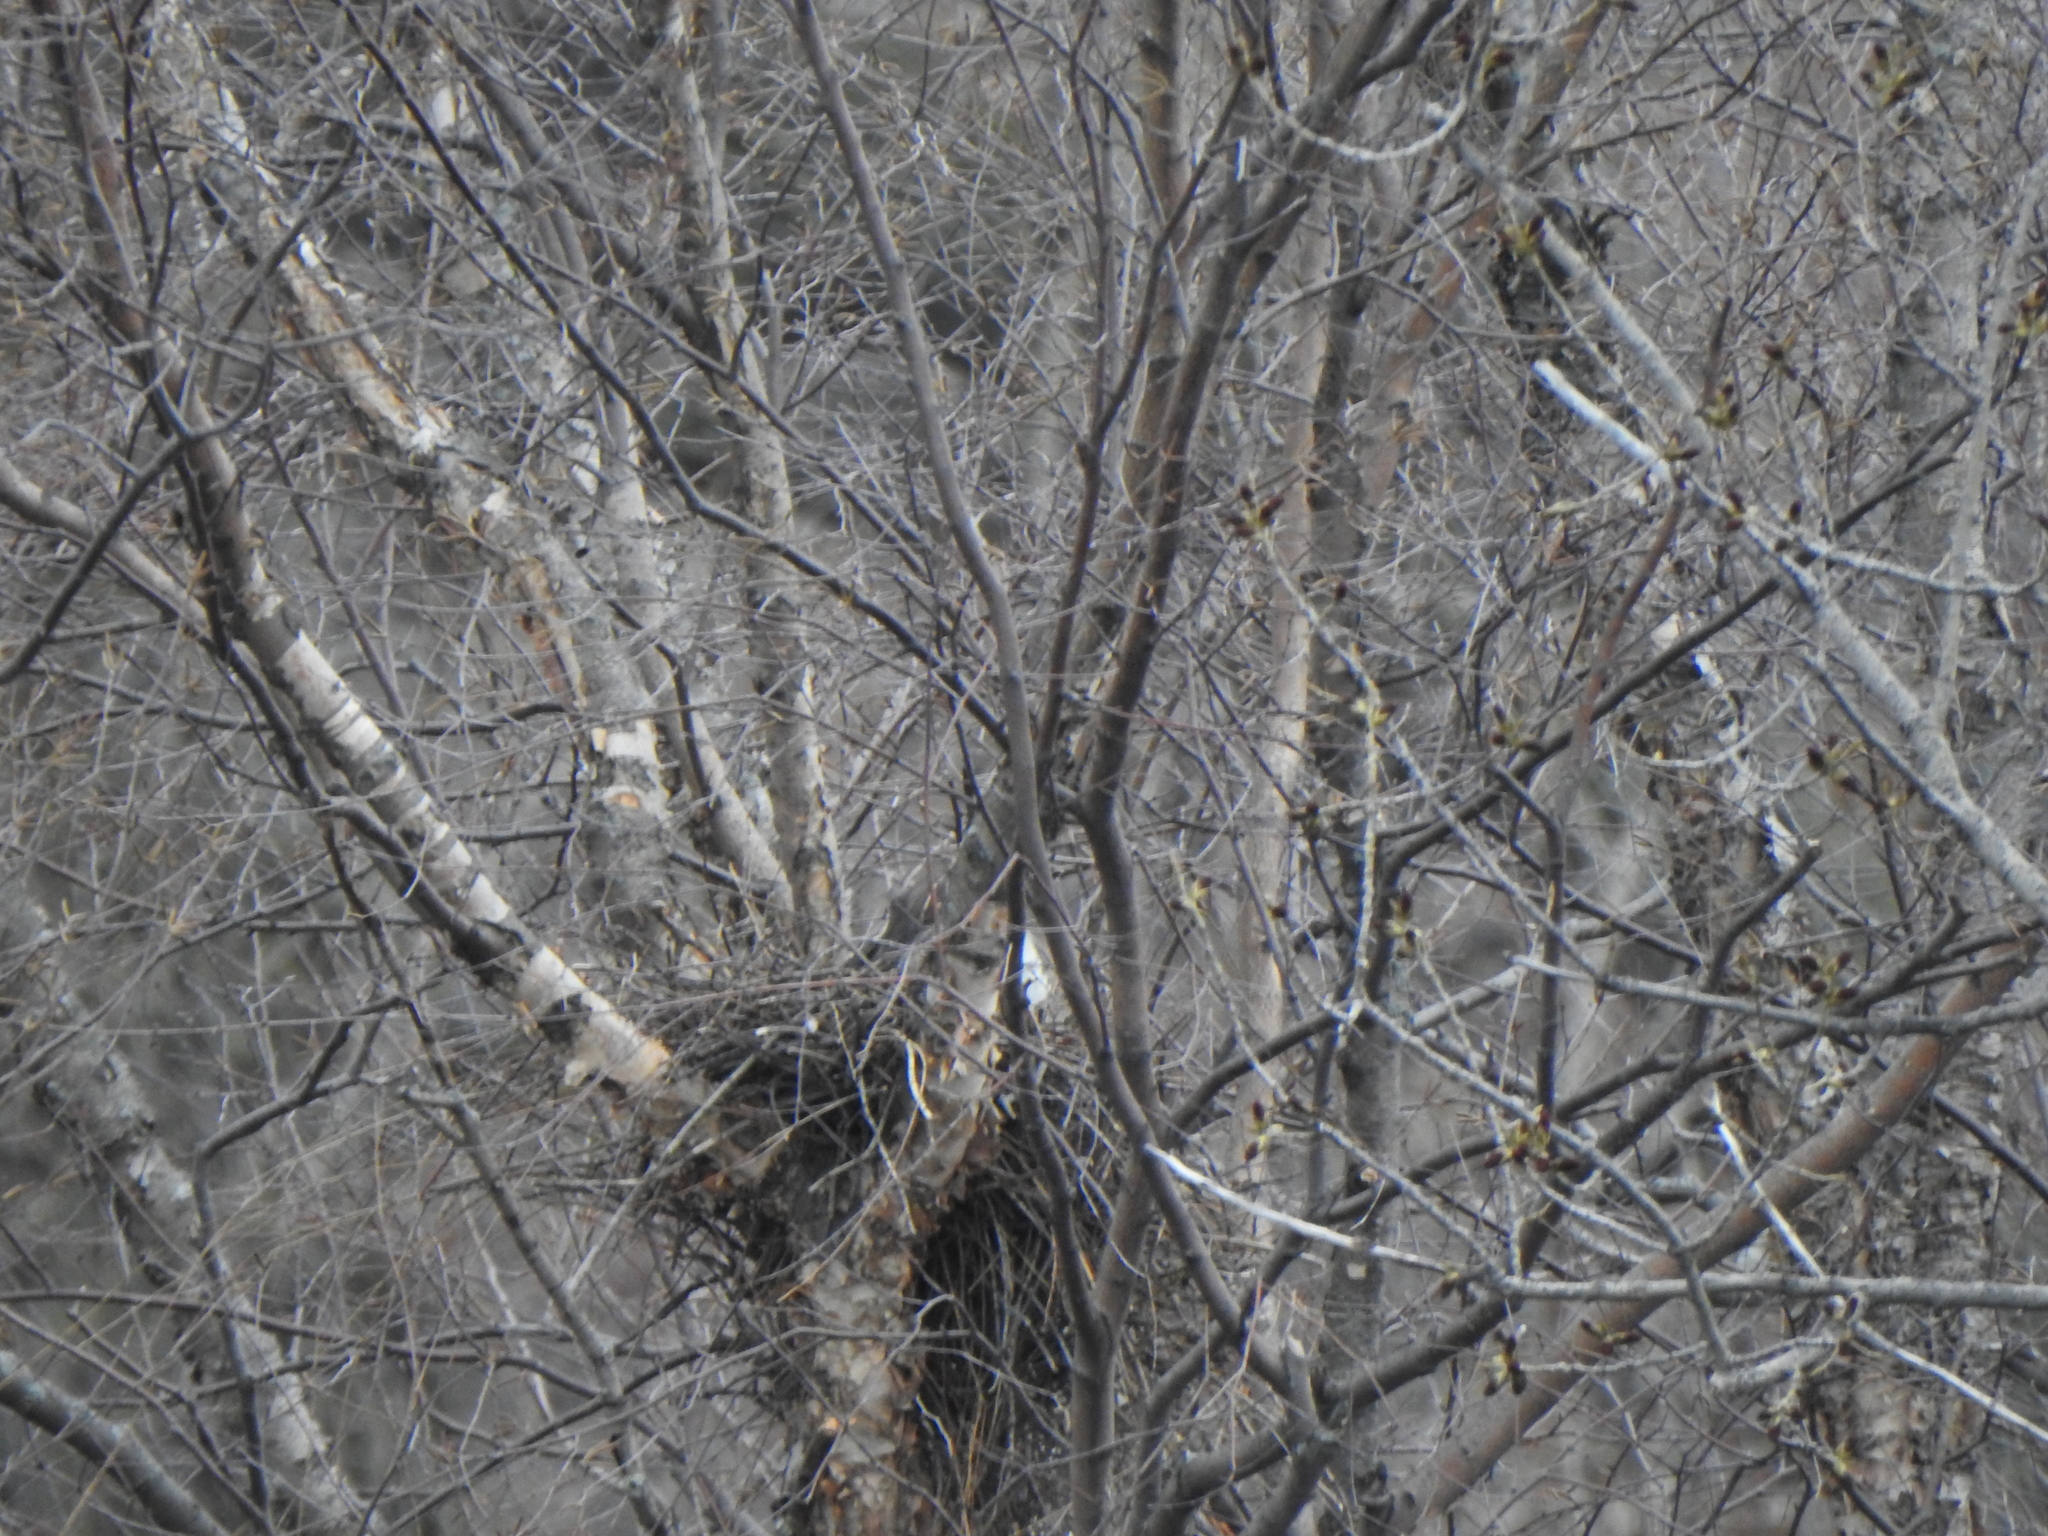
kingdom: Animalia
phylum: Chordata
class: Aves
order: Accipitriformes
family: Accipitridae
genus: Accipiter
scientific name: Accipiter cooperii
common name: Cooper's hawk
